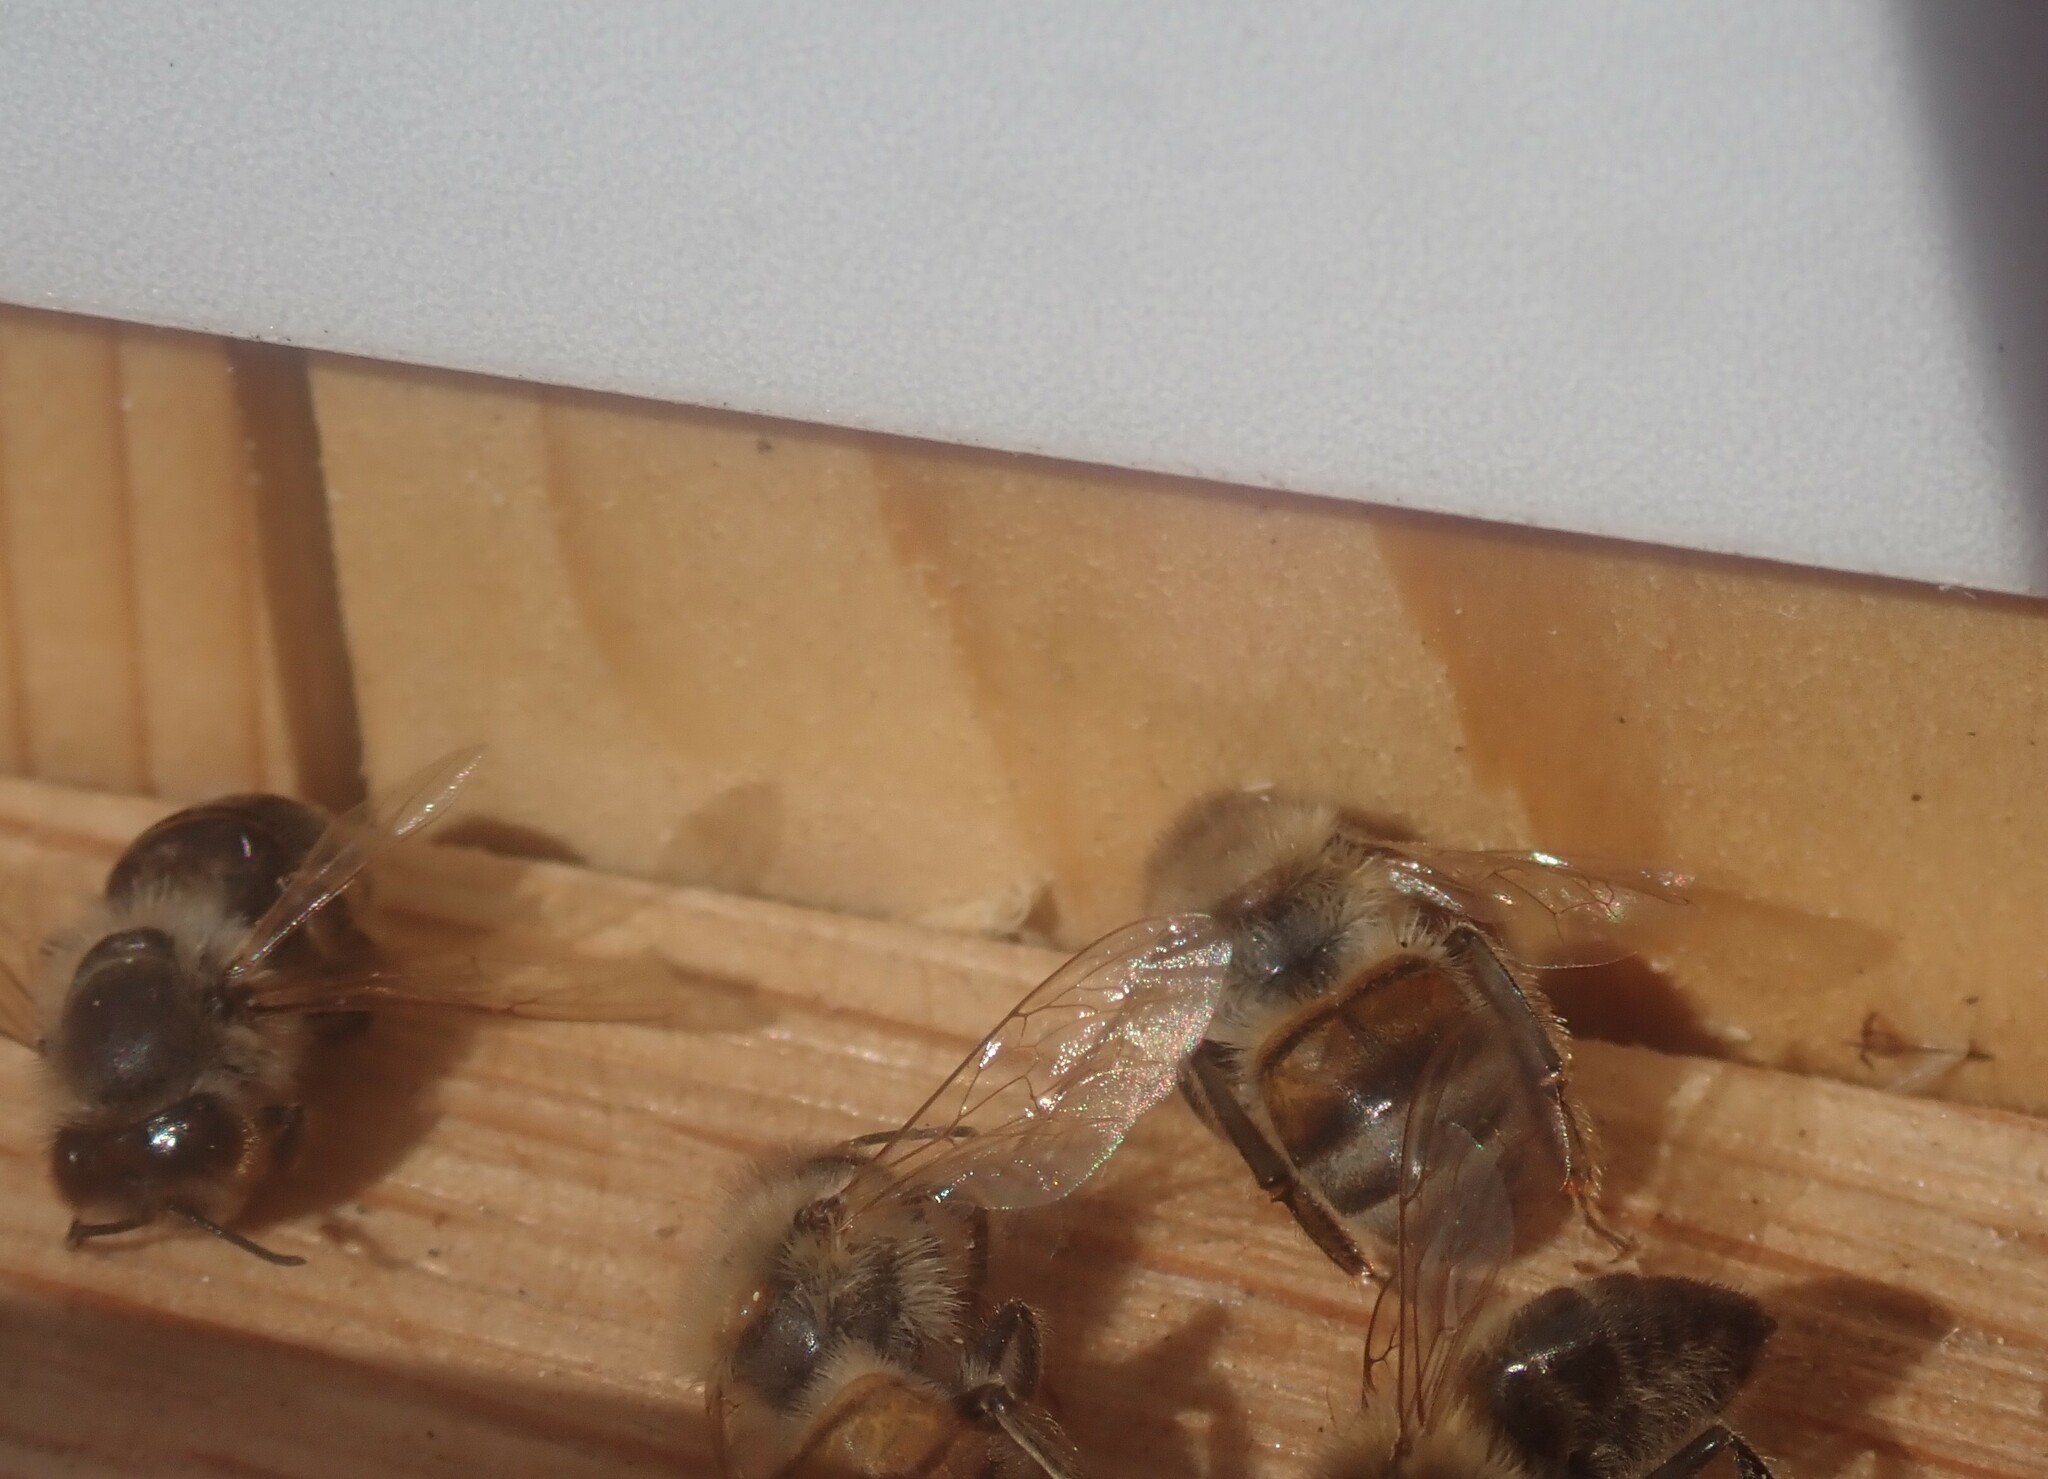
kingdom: Animalia
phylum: Arthropoda
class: Insecta
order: Hymenoptera
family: Apidae
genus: Apis
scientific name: Apis mellifera
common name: Honey bee
